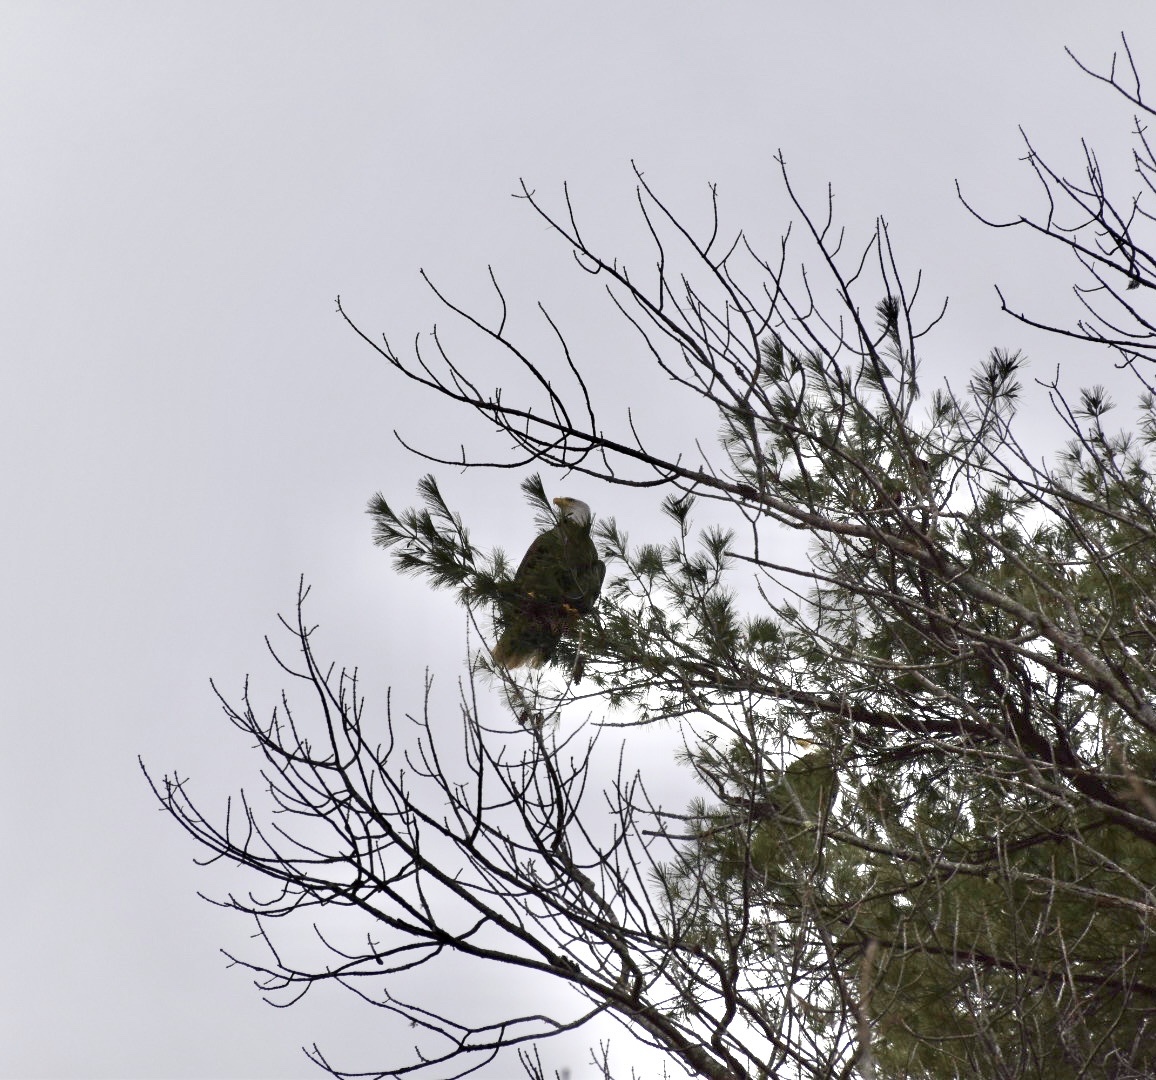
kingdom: Animalia
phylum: Chordata
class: Aves
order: Accipitriformes
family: Accipitridae
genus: Haliaeetus
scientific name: Haliaeetus leucocephalus
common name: Bald eagle
